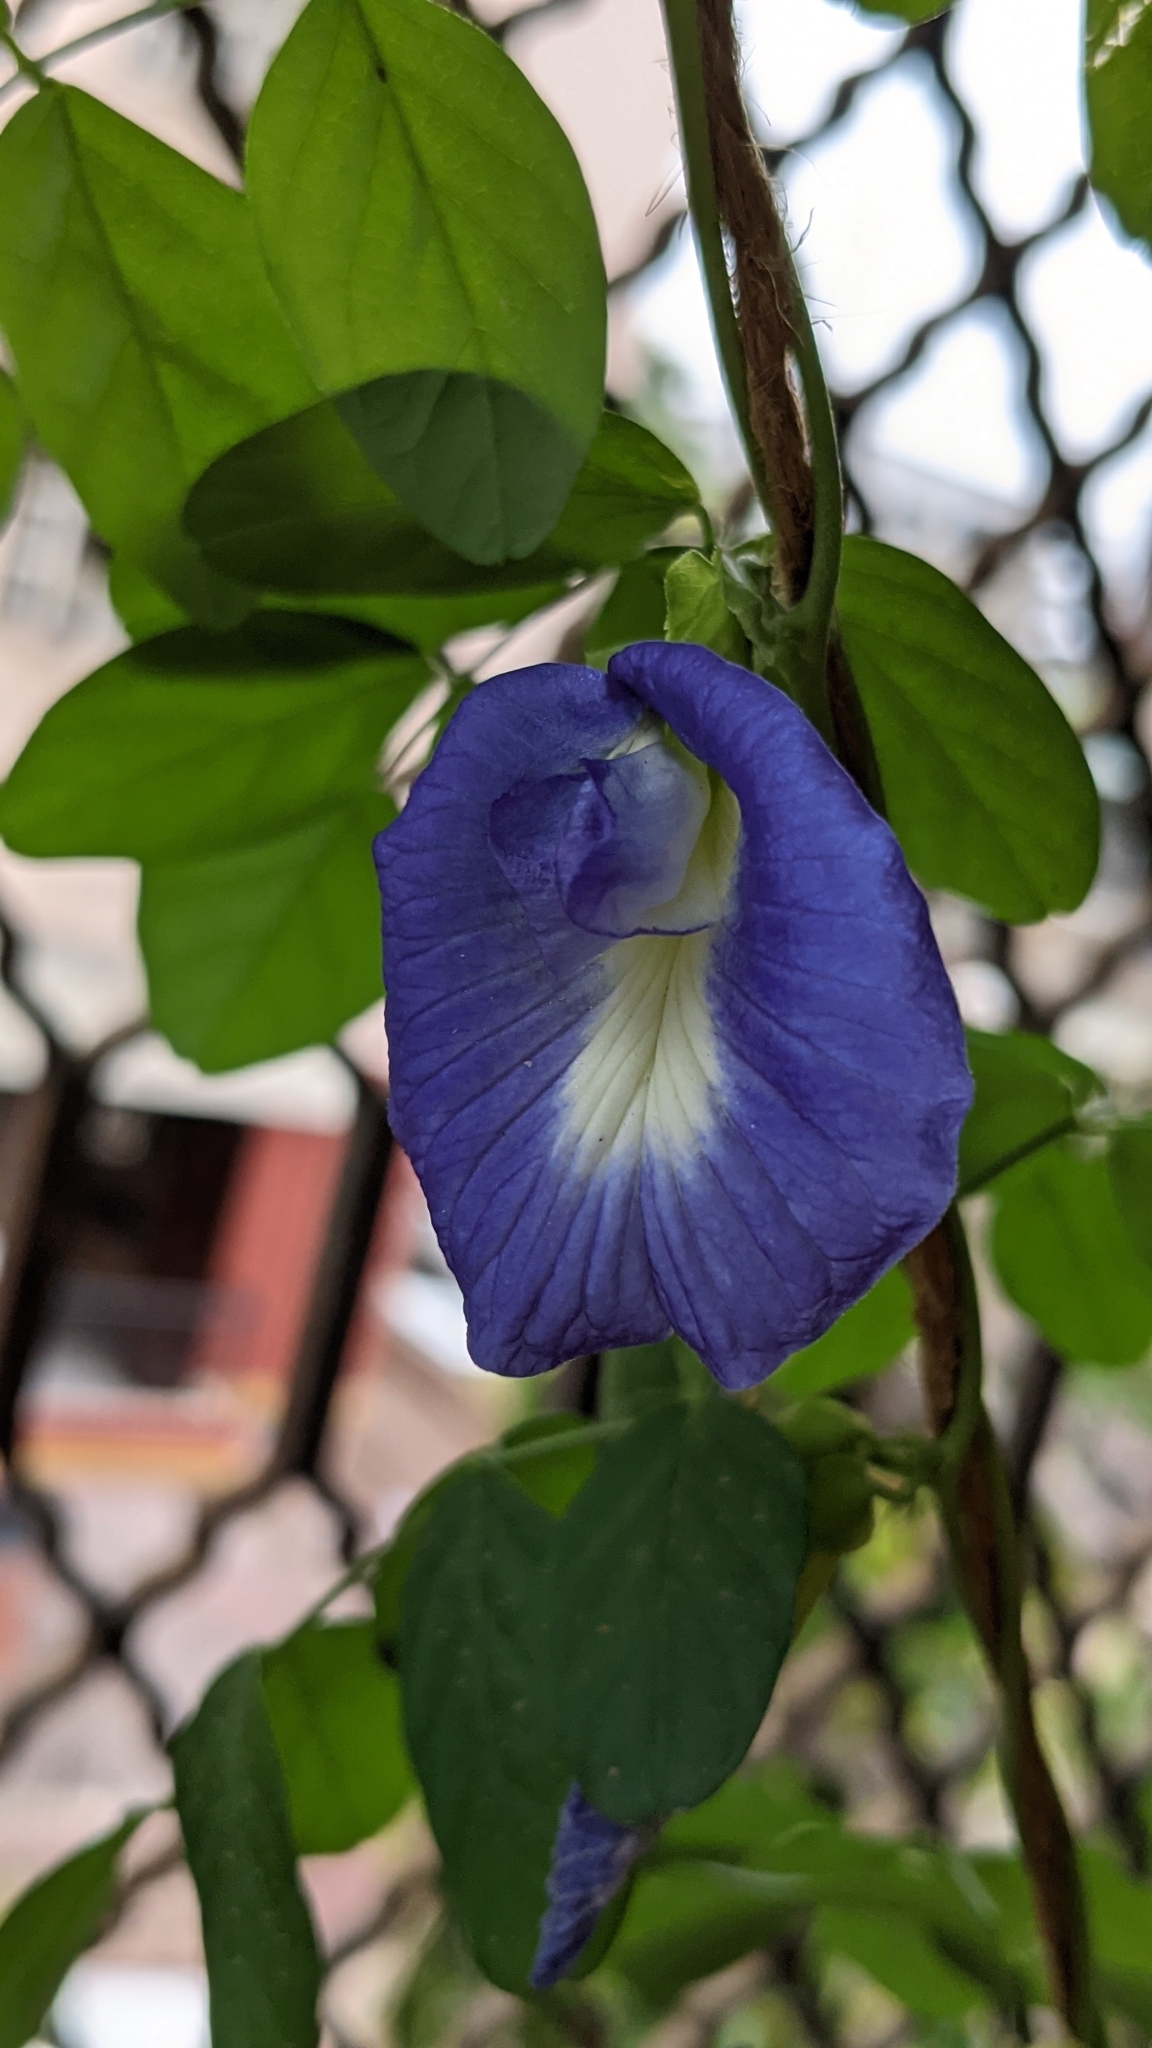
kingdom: Plantae
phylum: Tracheophyta
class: Magnoliopsida
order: Fabales
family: Fabaceae
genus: Clitoria
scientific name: Clitoria ternatea
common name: Asian pigeonwings
